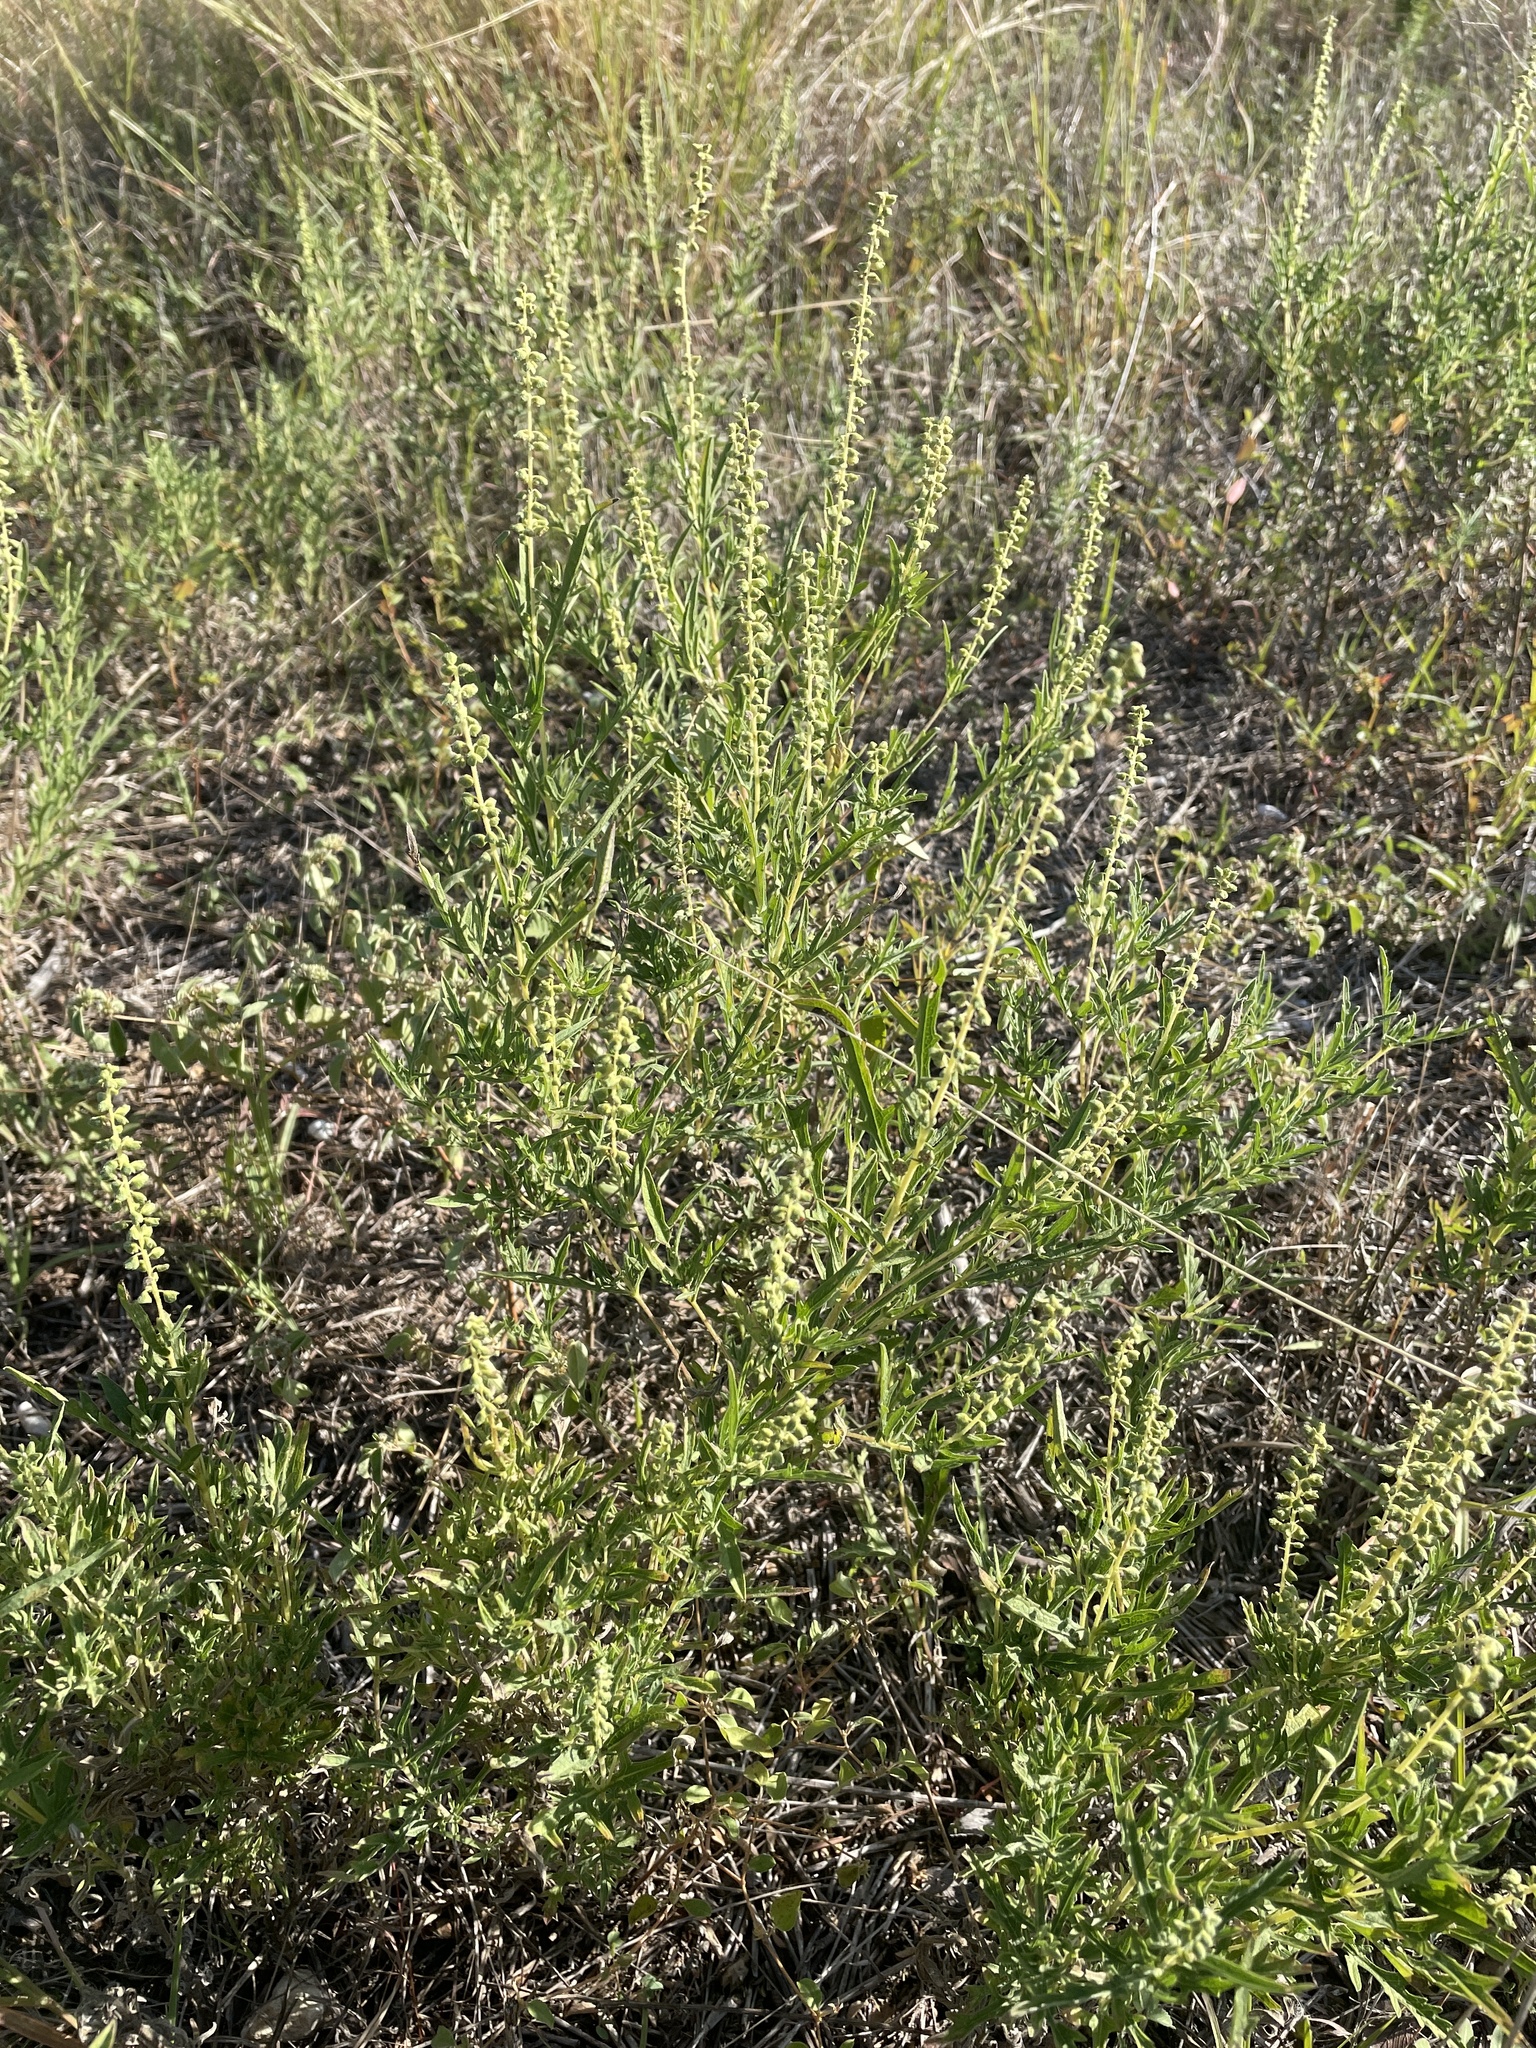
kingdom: Plantae
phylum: Tracheophyta
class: Magnoliopsida
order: Asterales
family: Asteraceae
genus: Ambrosia
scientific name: Ambrosia psilostachya
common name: Perennial ragweed
